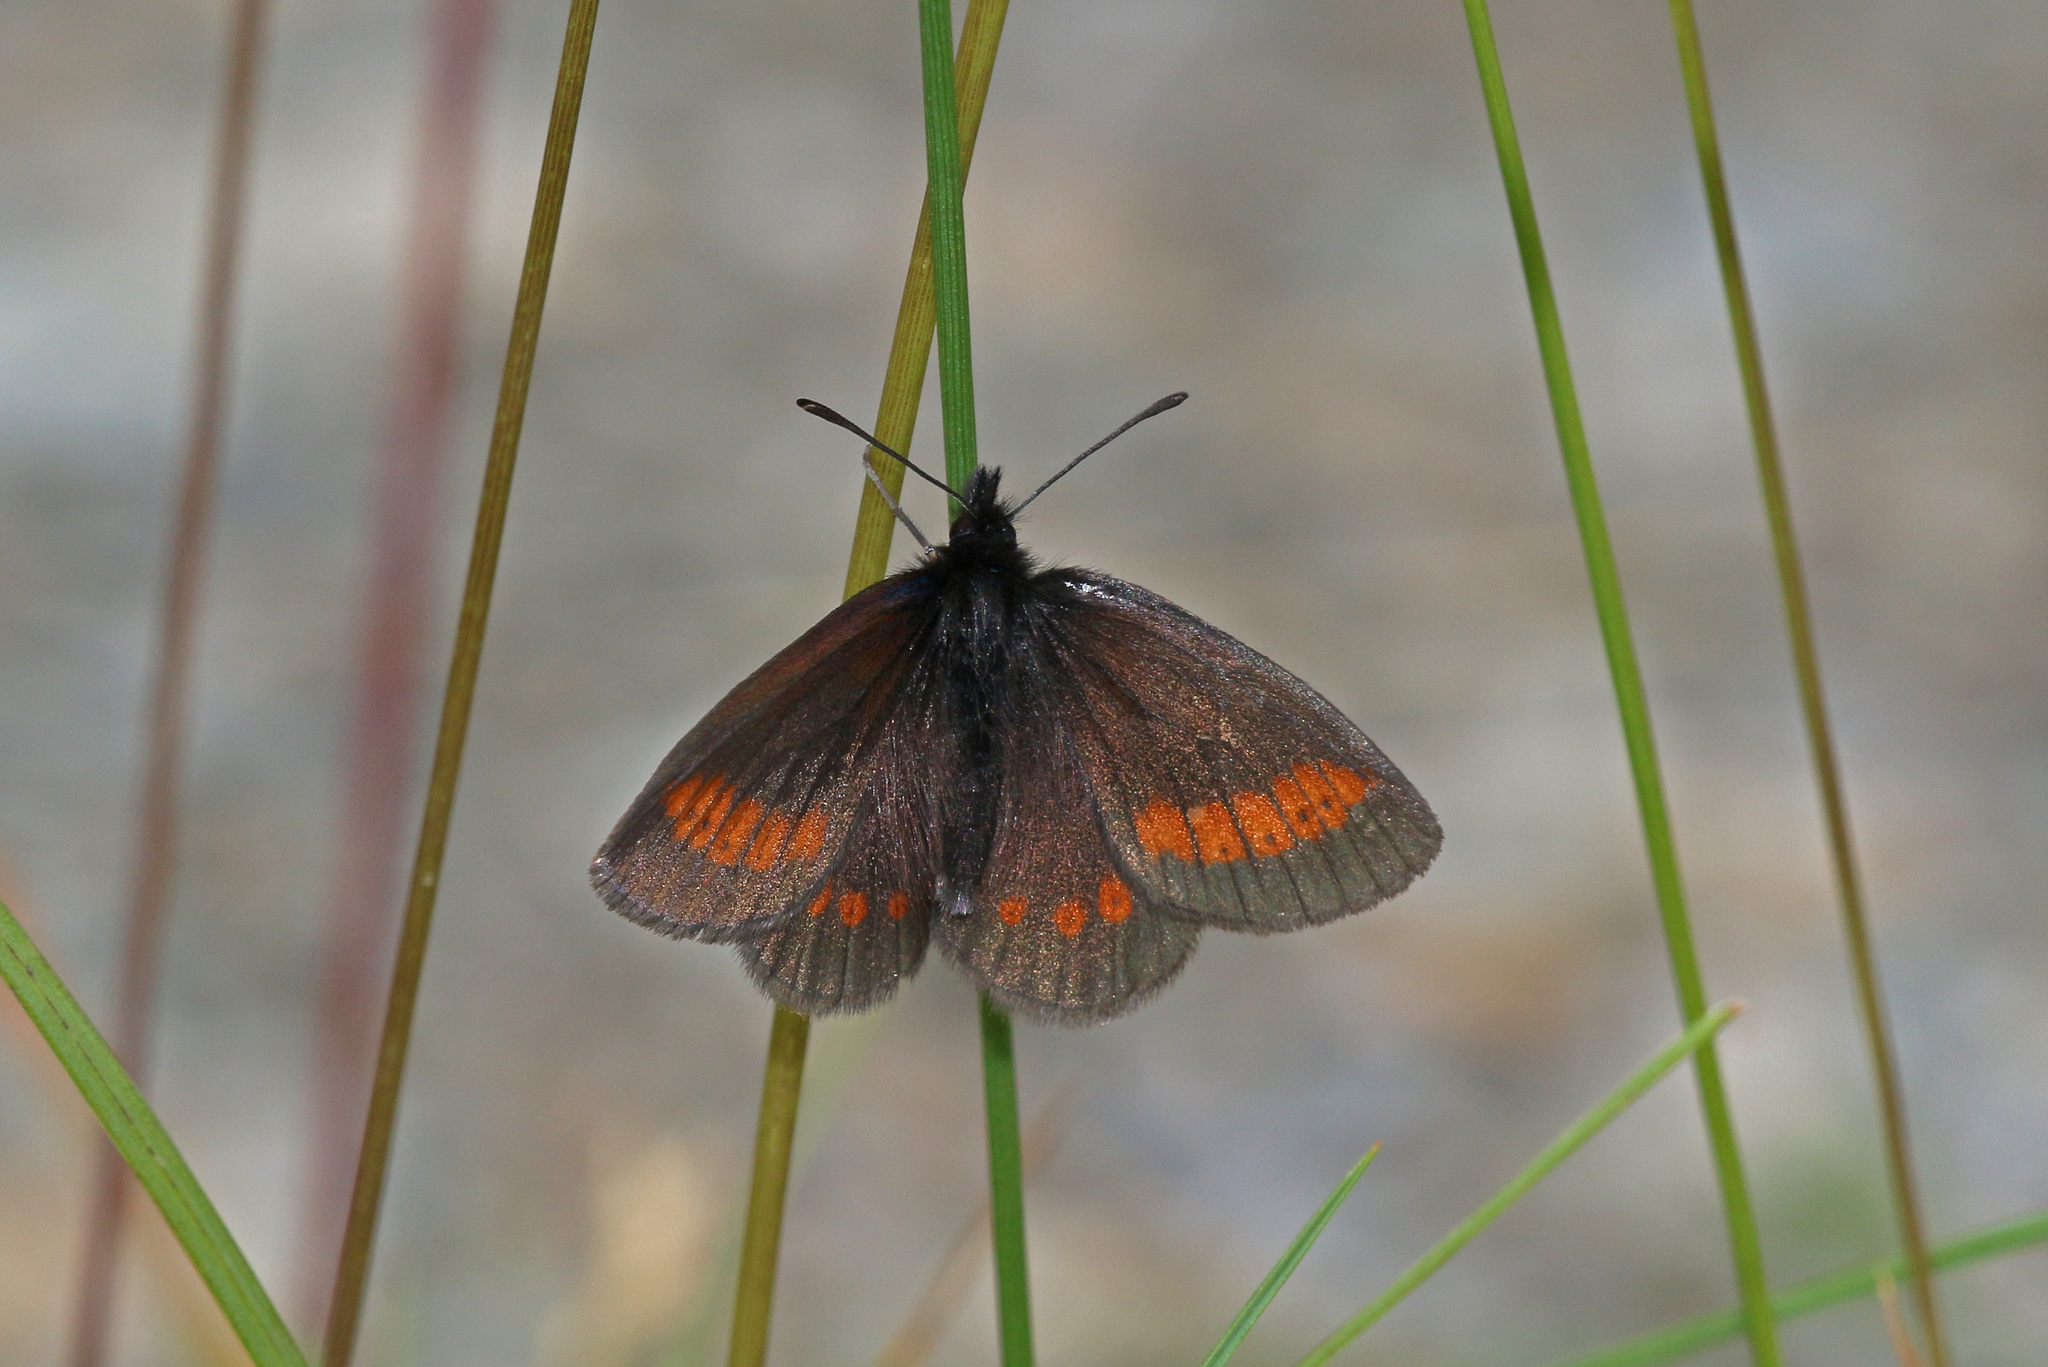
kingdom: Animalia
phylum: Arthropoda
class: Insecta
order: Lepidoptera
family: Nymphalidae
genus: Erebia
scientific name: Erebia melampus
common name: Lesser mountain ringlet
